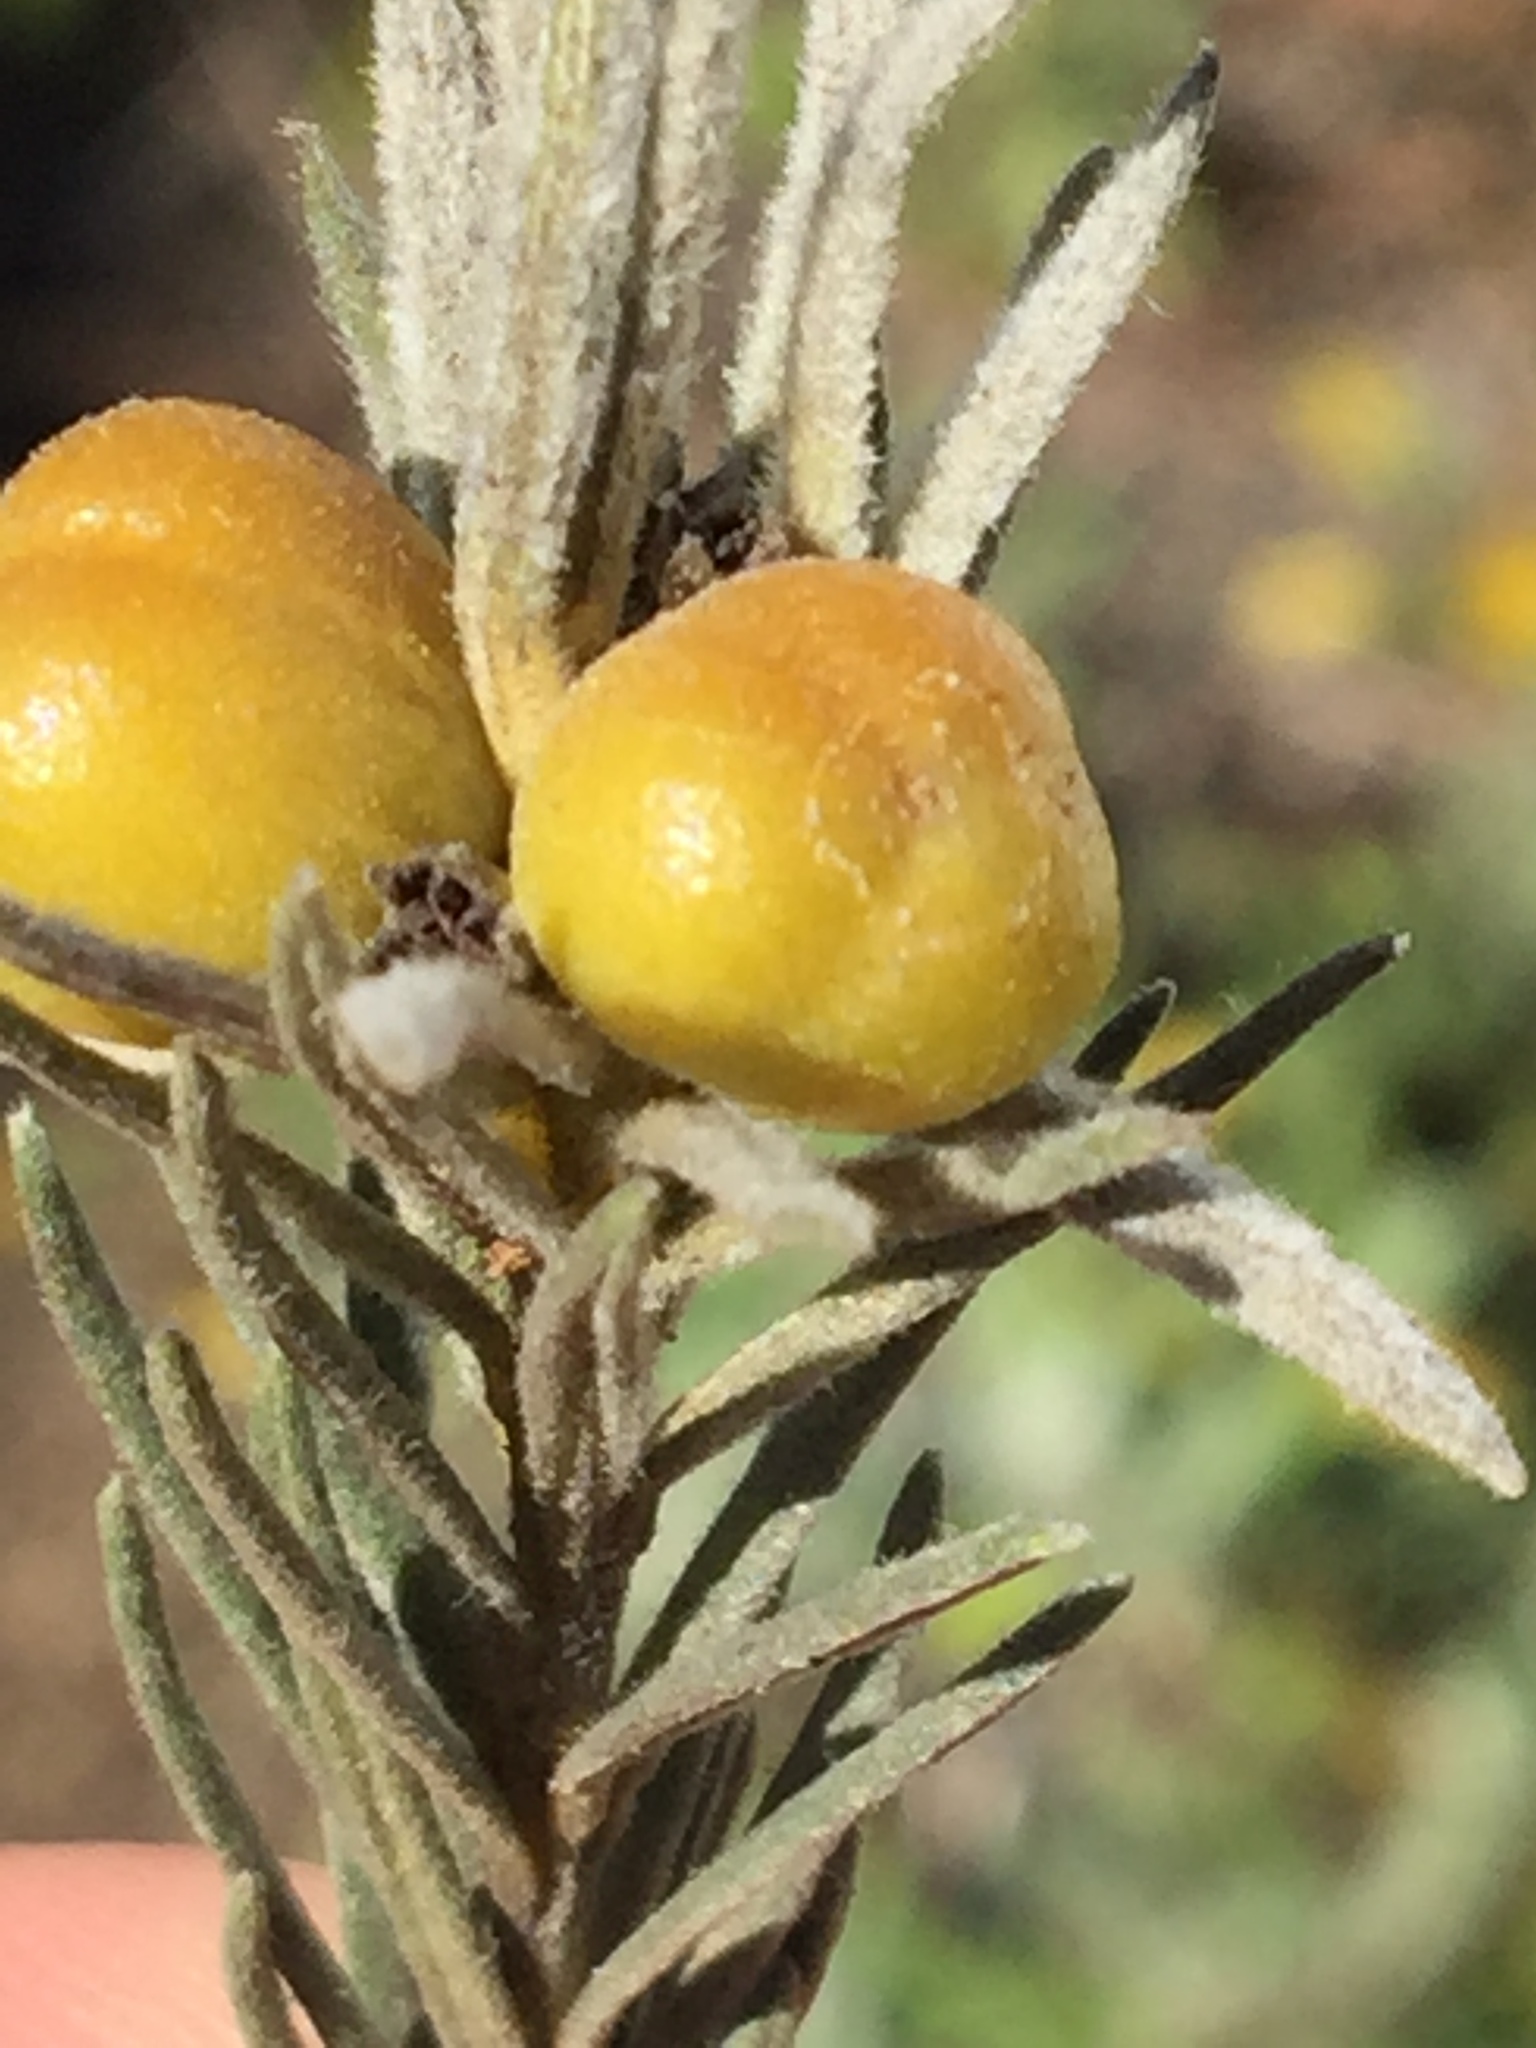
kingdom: Plantae
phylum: Tracheophyta
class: Magnoliopsida
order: Rosales
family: Rhamnaceae
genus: Phylica
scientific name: Phylica velutina
